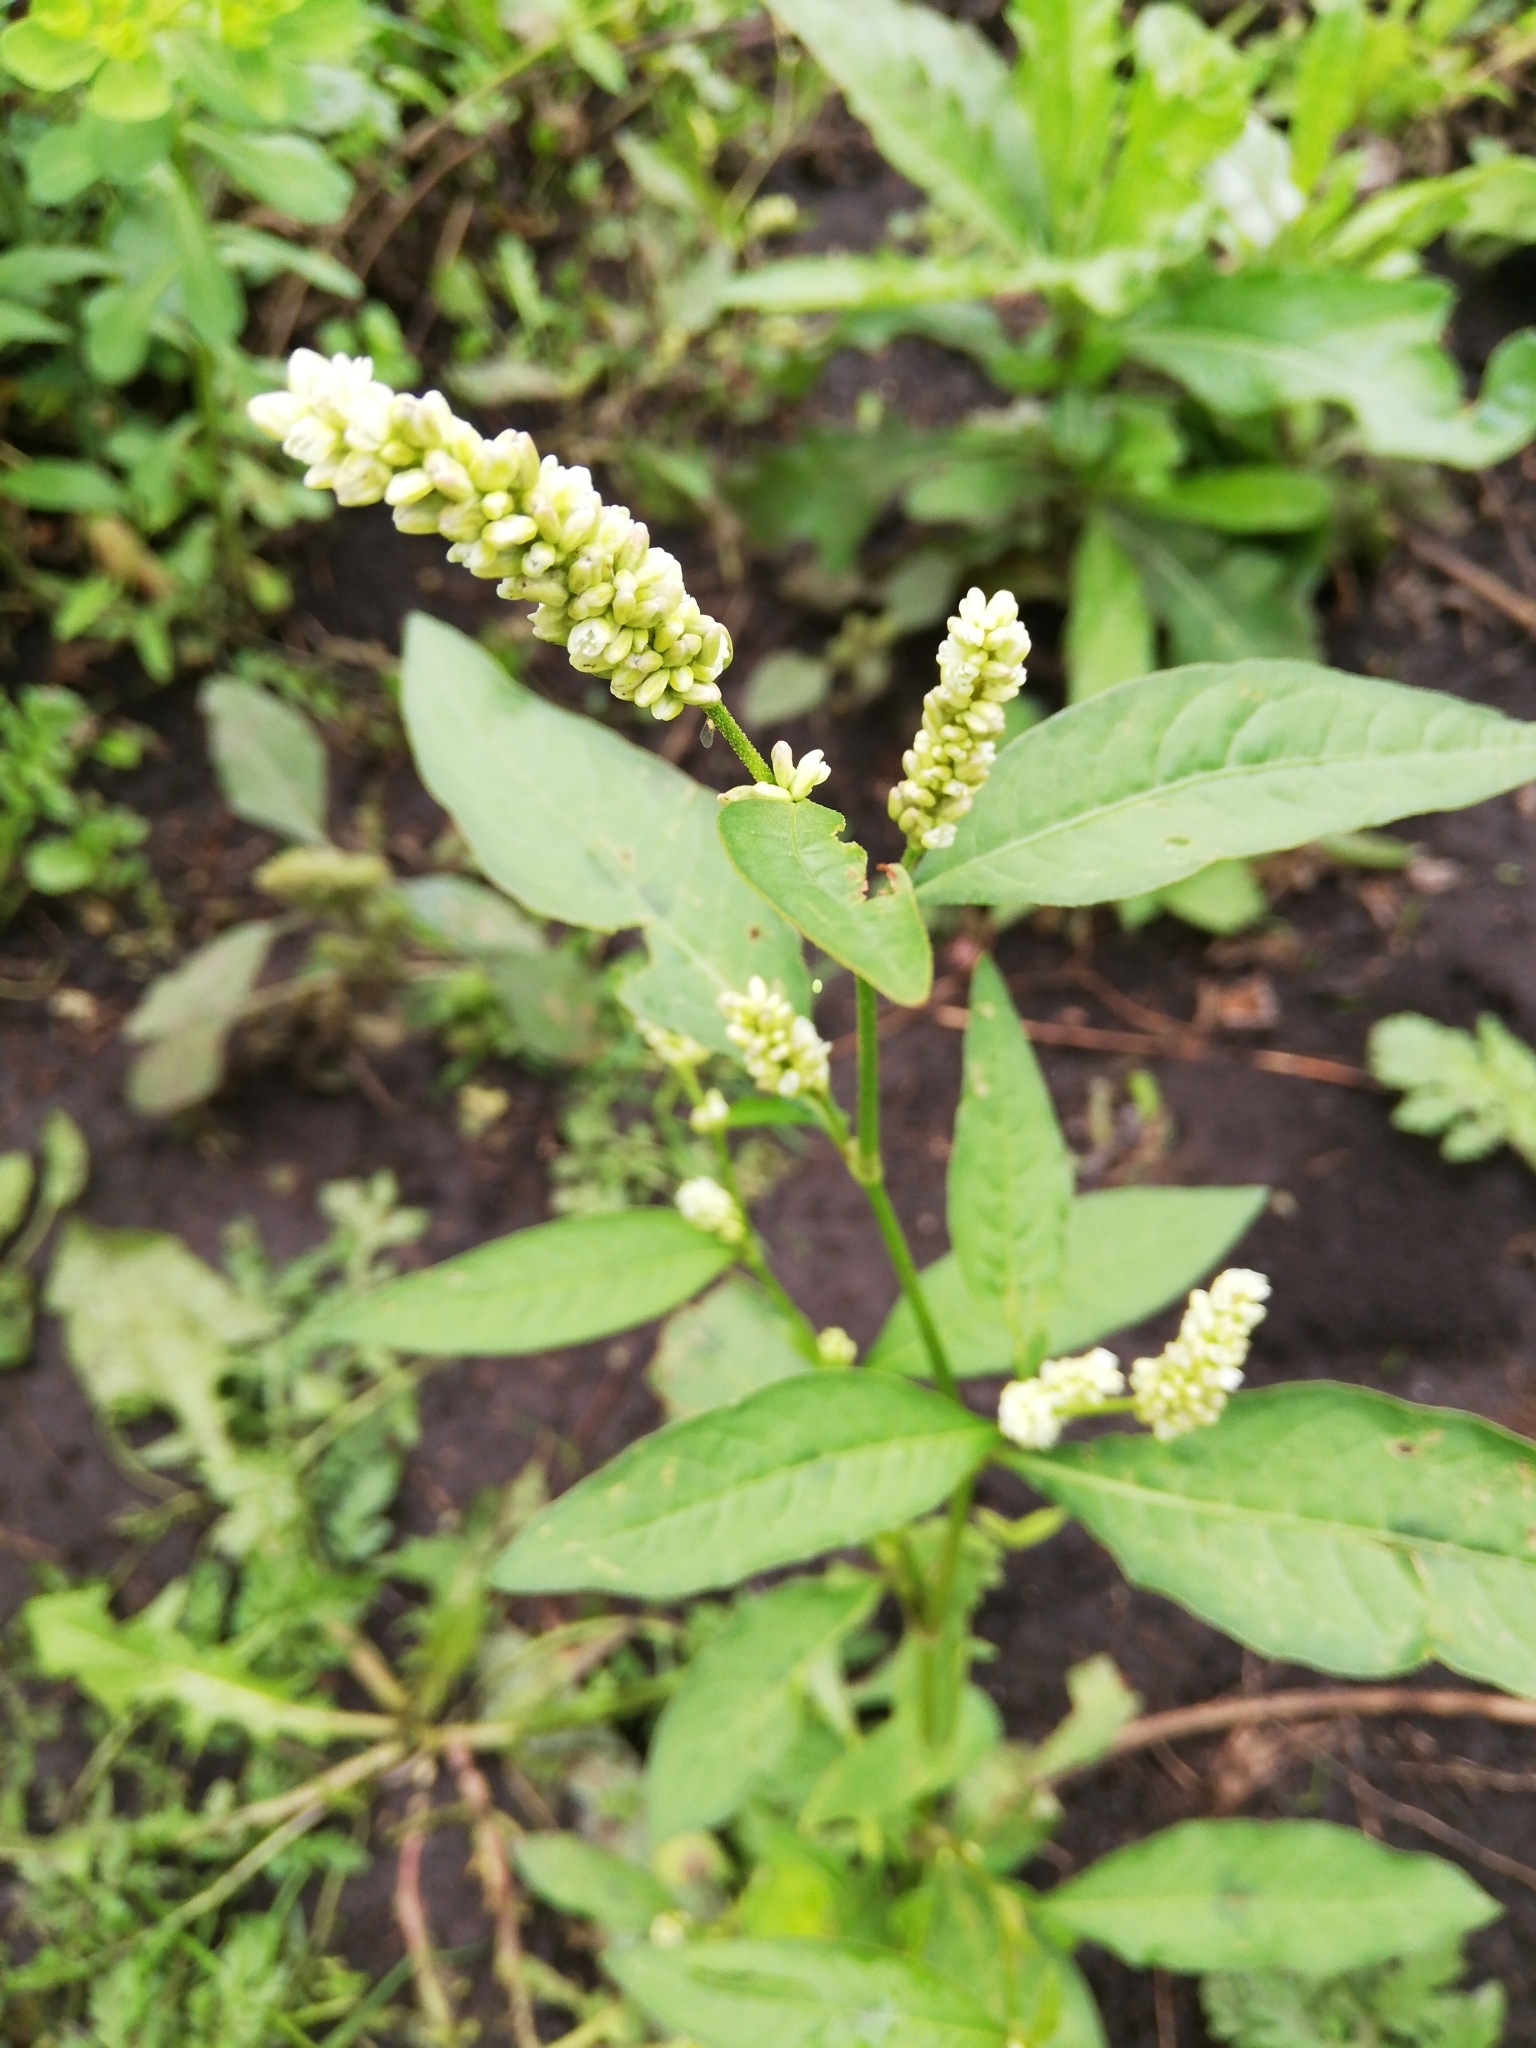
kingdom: Plantae
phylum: Tracheophyta
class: Magnoliopsida
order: Caryophyllales
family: Polygonaceae
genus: Persicaria
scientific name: Persicaria maculosa
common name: Redshank
